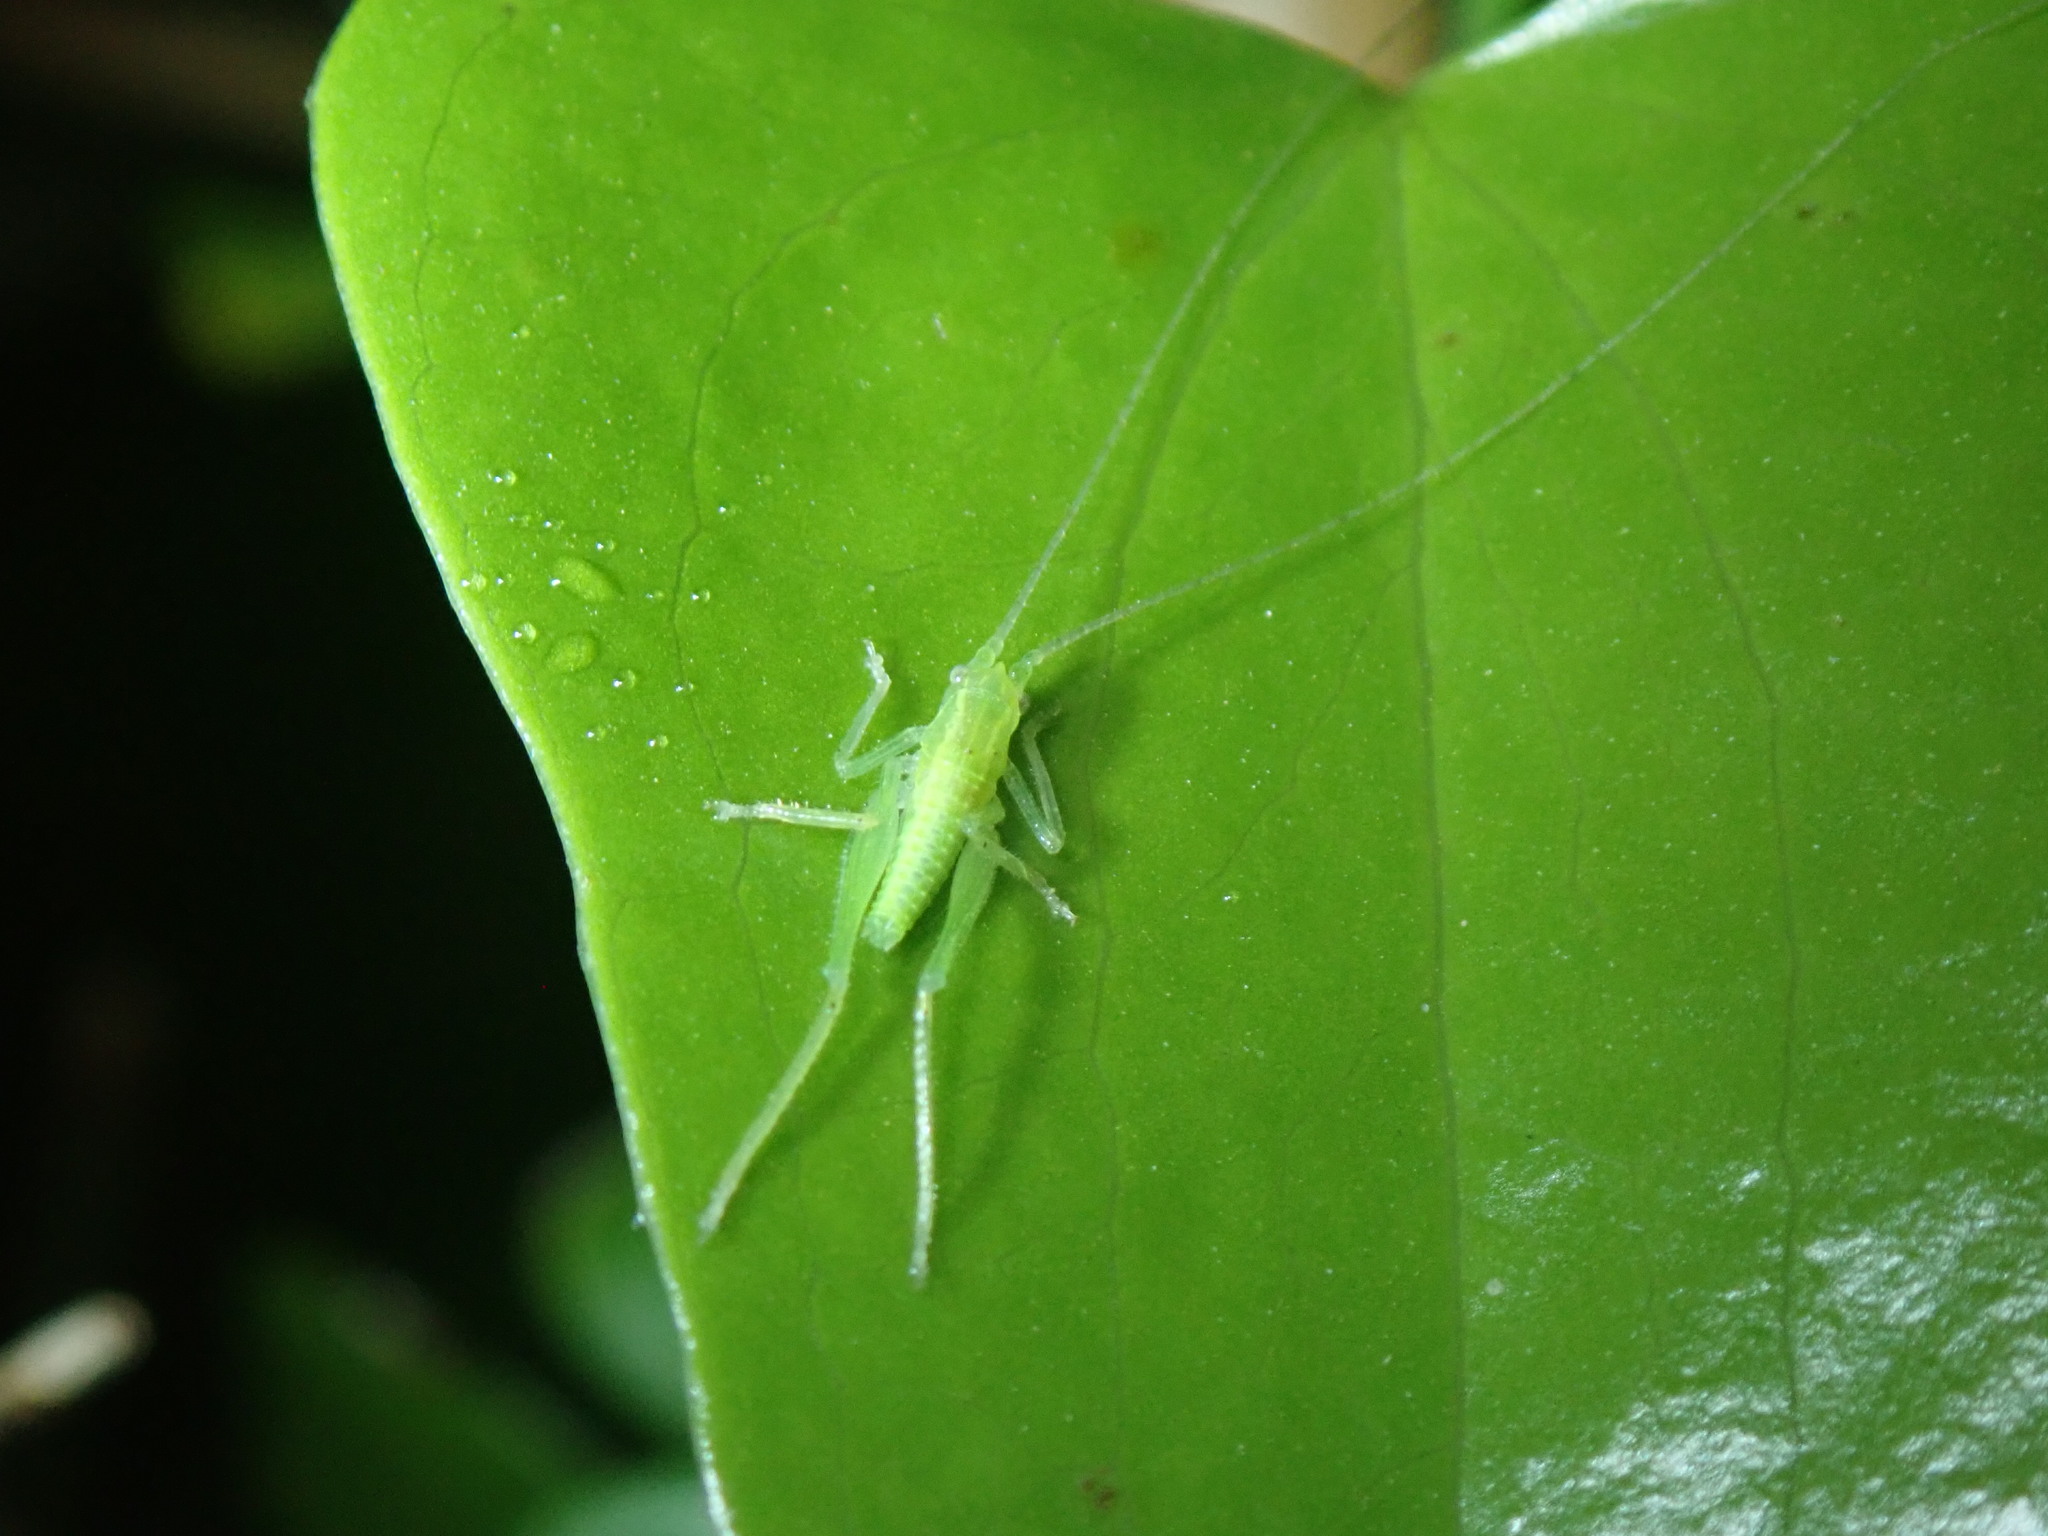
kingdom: Animalia
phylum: Arthropoda
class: Insecta
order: Orthoptera
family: Tettigoniidae
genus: Cyrtaspis
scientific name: Cyrtaspis scutata
